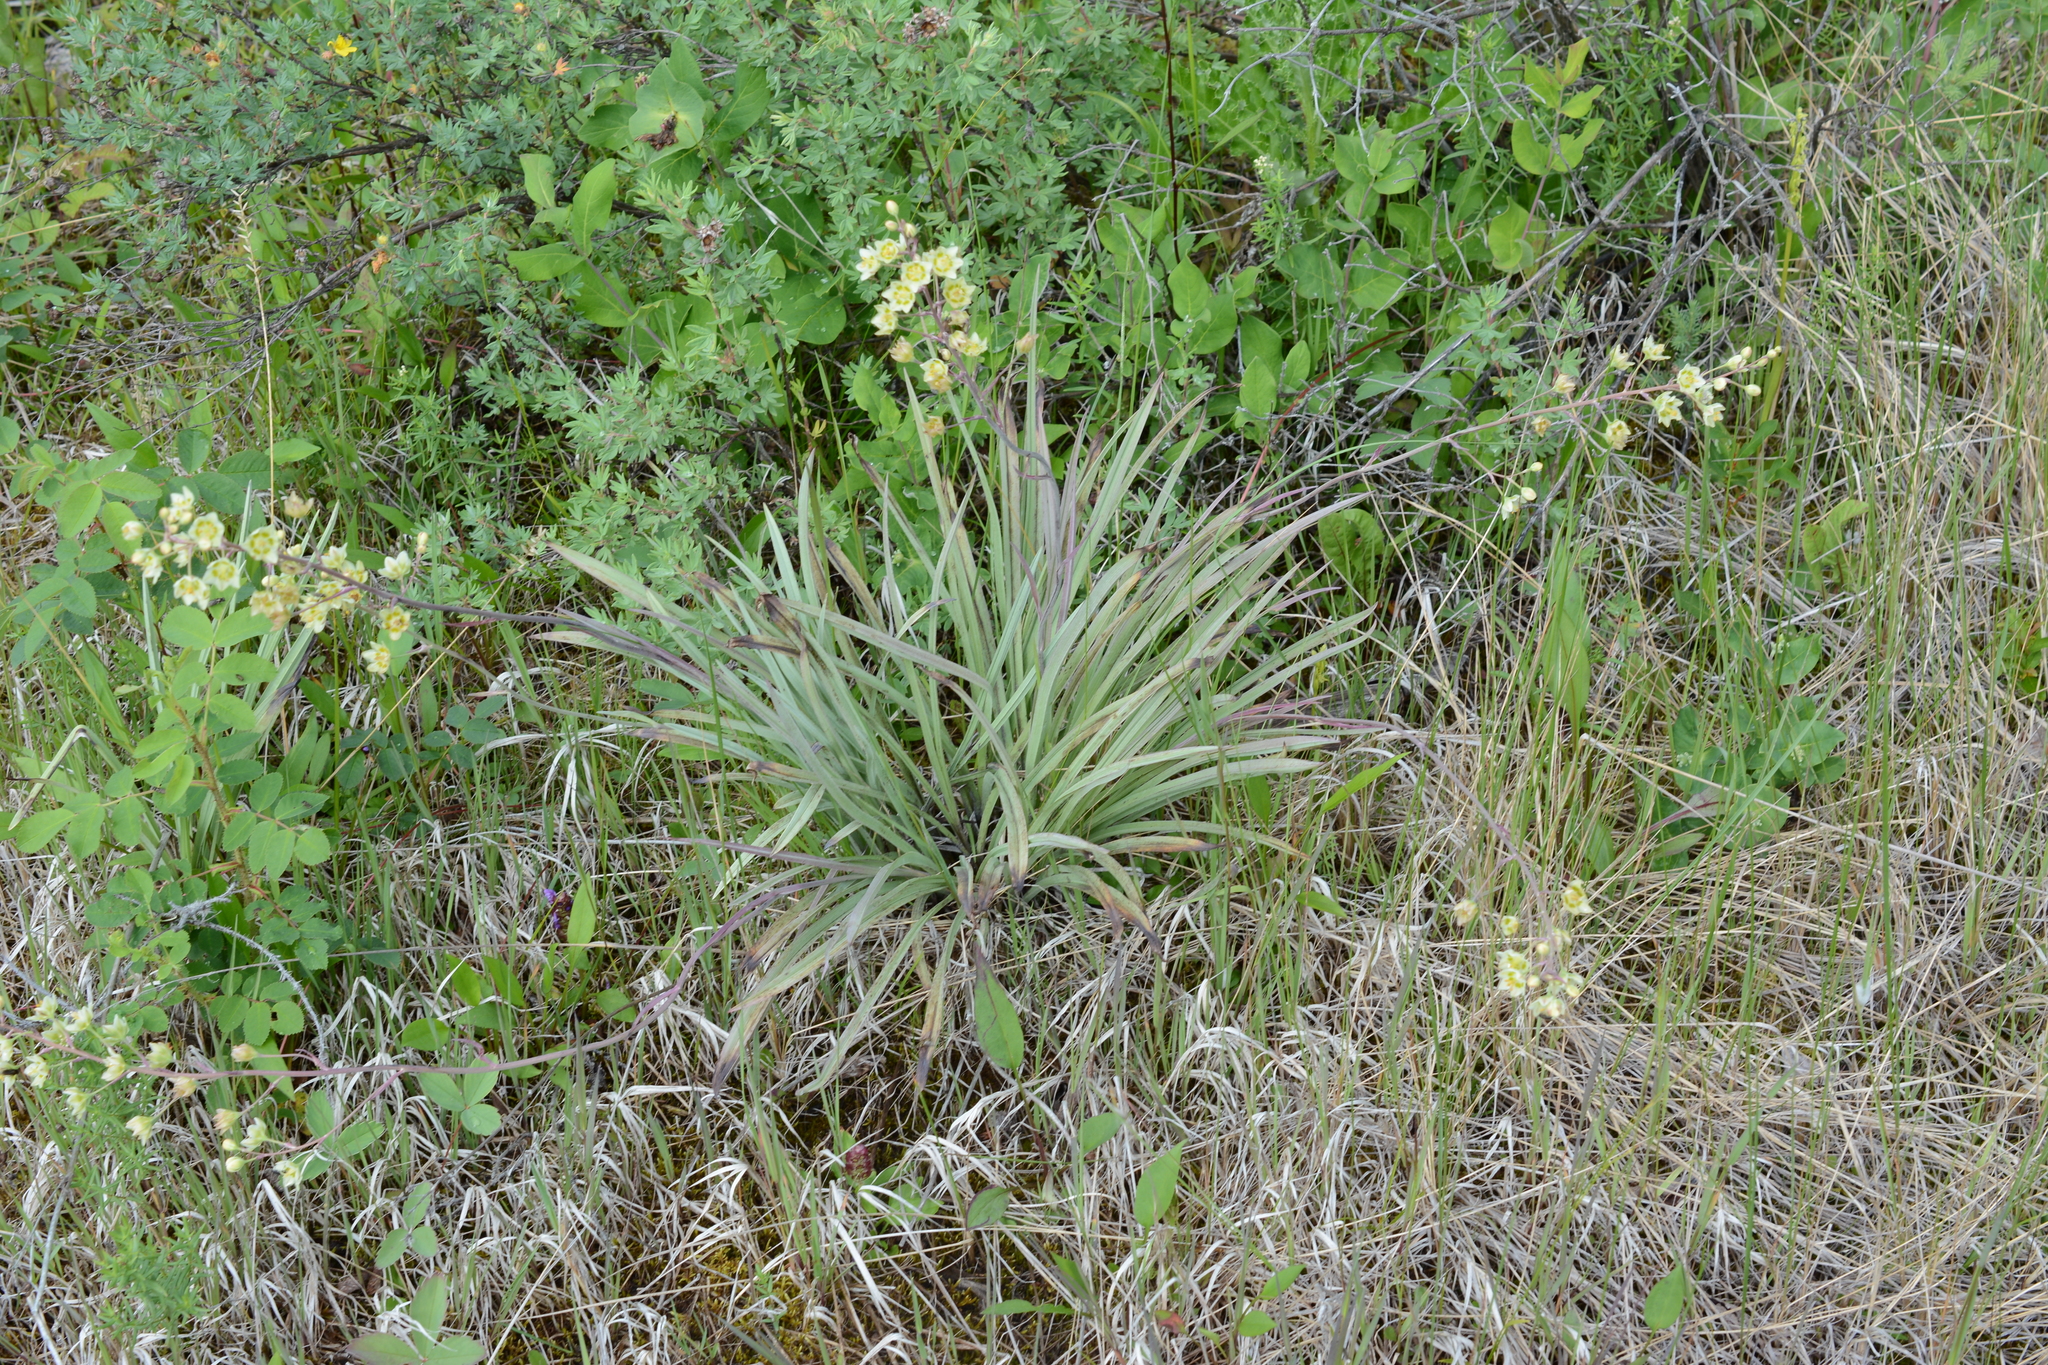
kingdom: Plantae
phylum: Tracheophyta
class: Liliopsida
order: Liliales
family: Melanthiaceae
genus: Anticlea
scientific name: Anticlea elegans
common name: Mountain death camas
